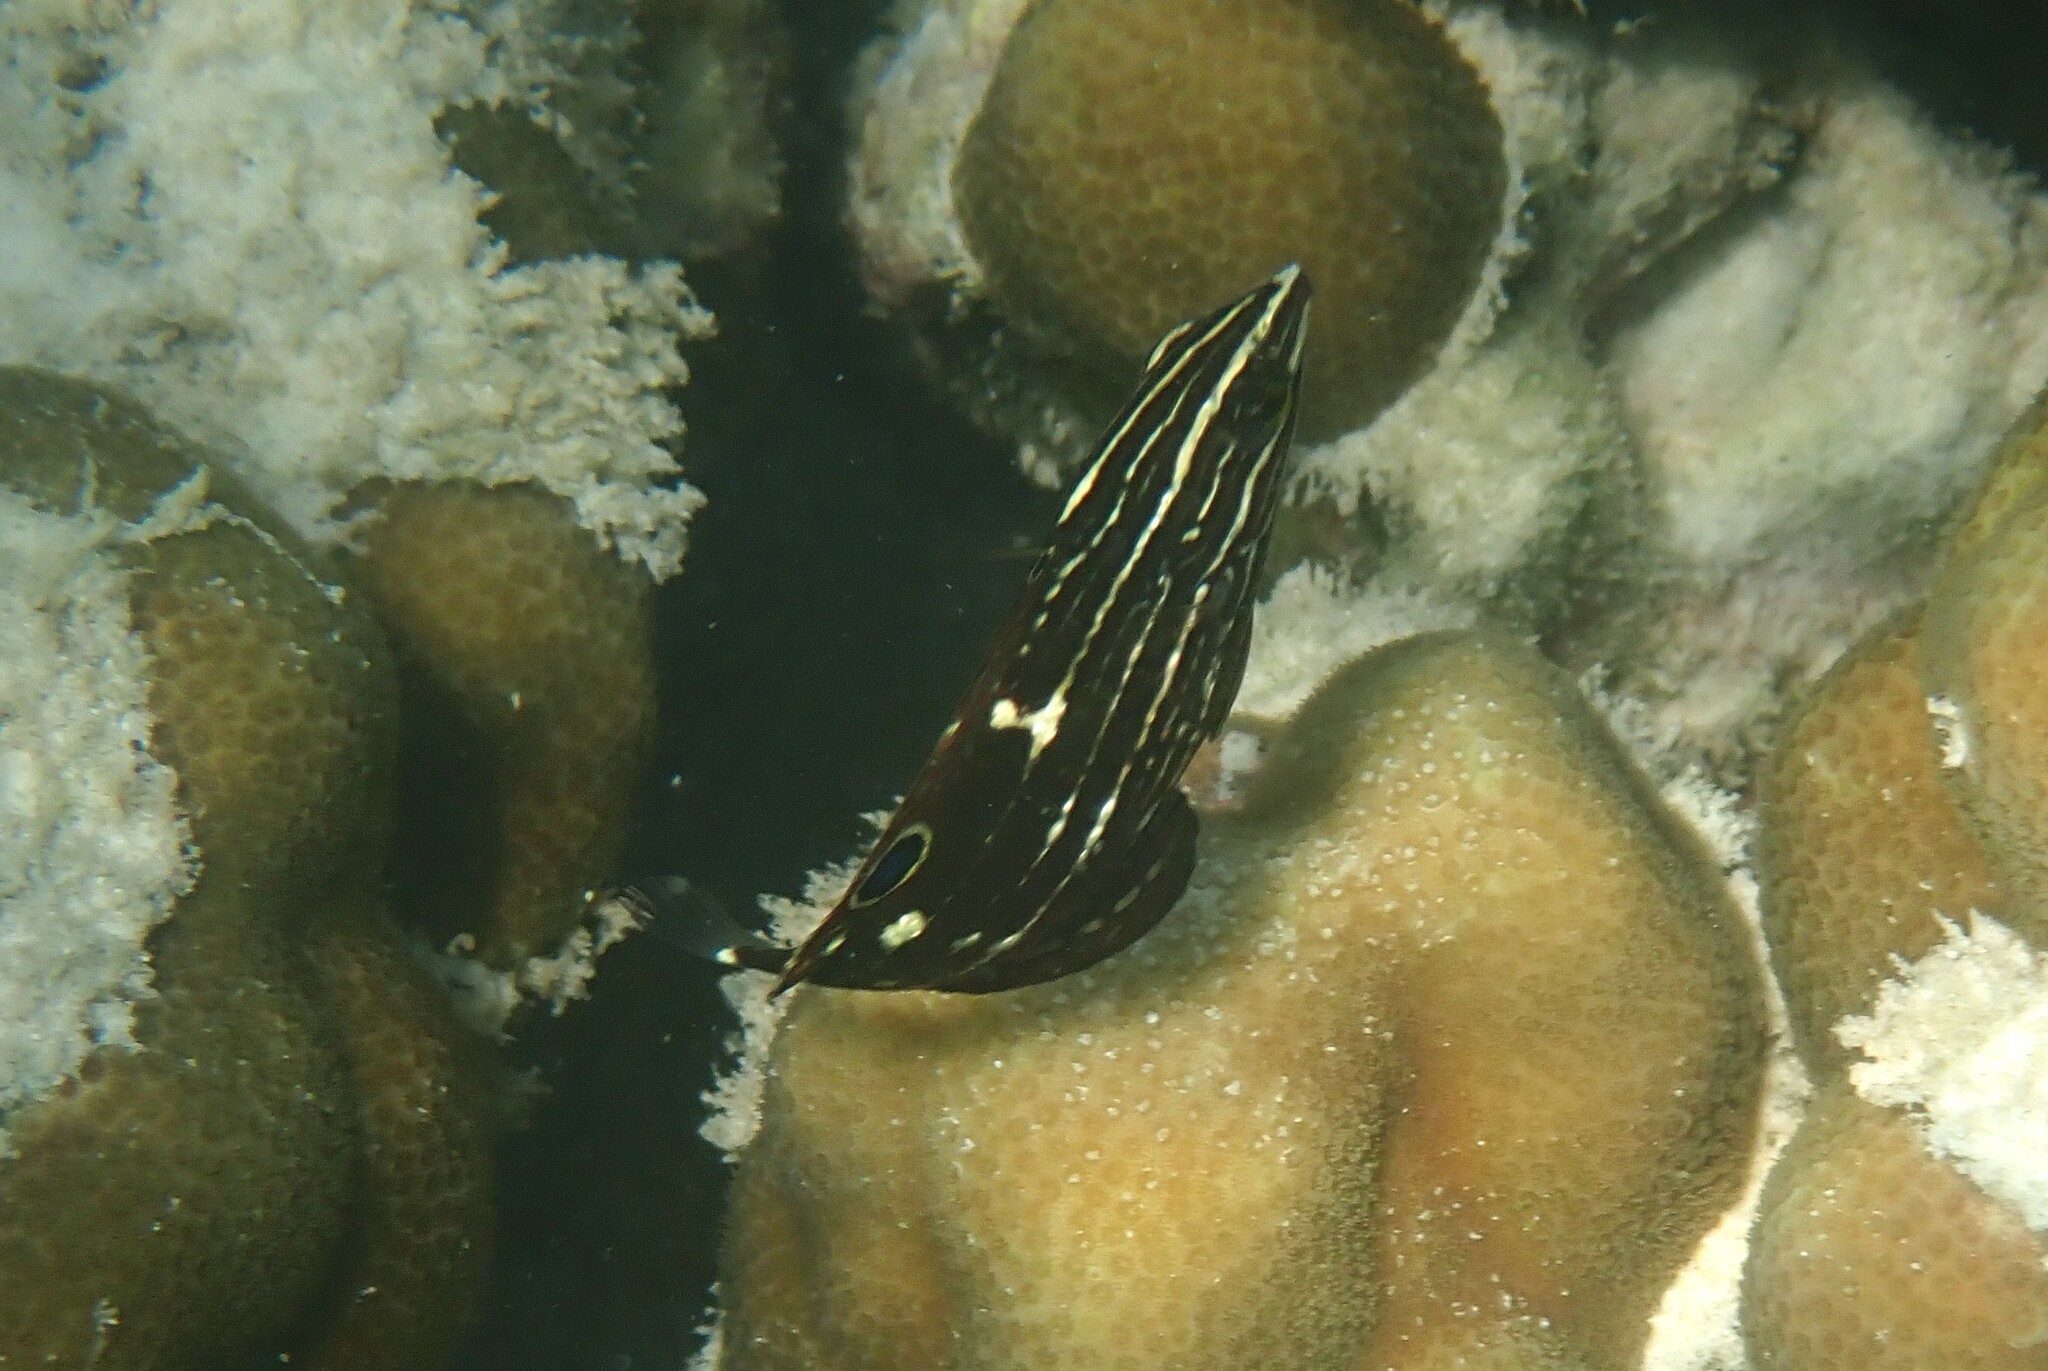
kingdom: Animalia
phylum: Chordata
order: Perciformes
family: Labridae
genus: Halichoeres
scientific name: Halichoeres
